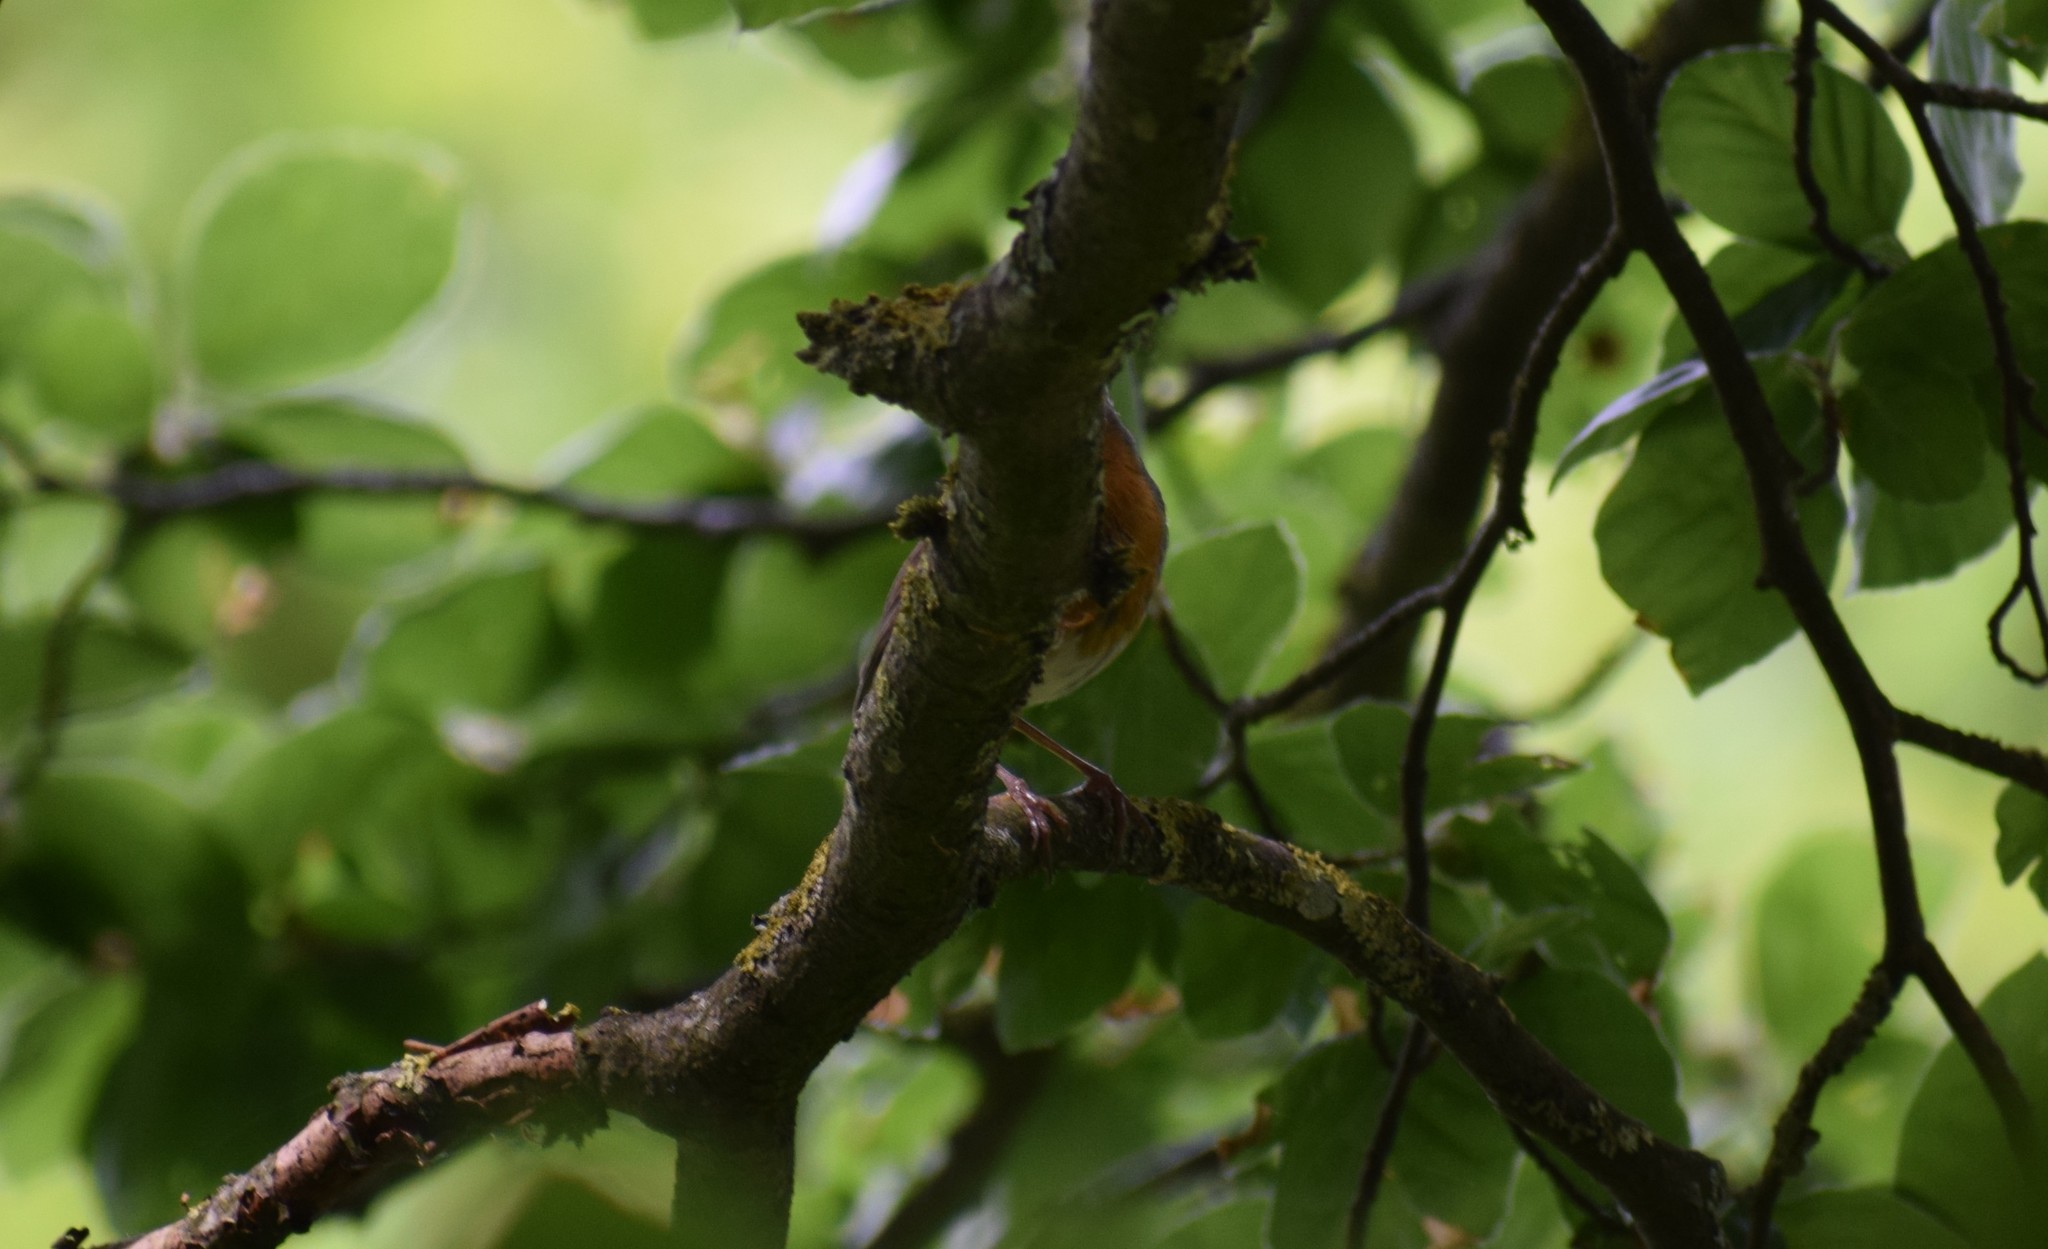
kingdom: Animalia
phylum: Chordata
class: Aves
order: Passeriformes
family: Muscicapidae
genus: Erithacus
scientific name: Erithacus rubecula
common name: European robin
